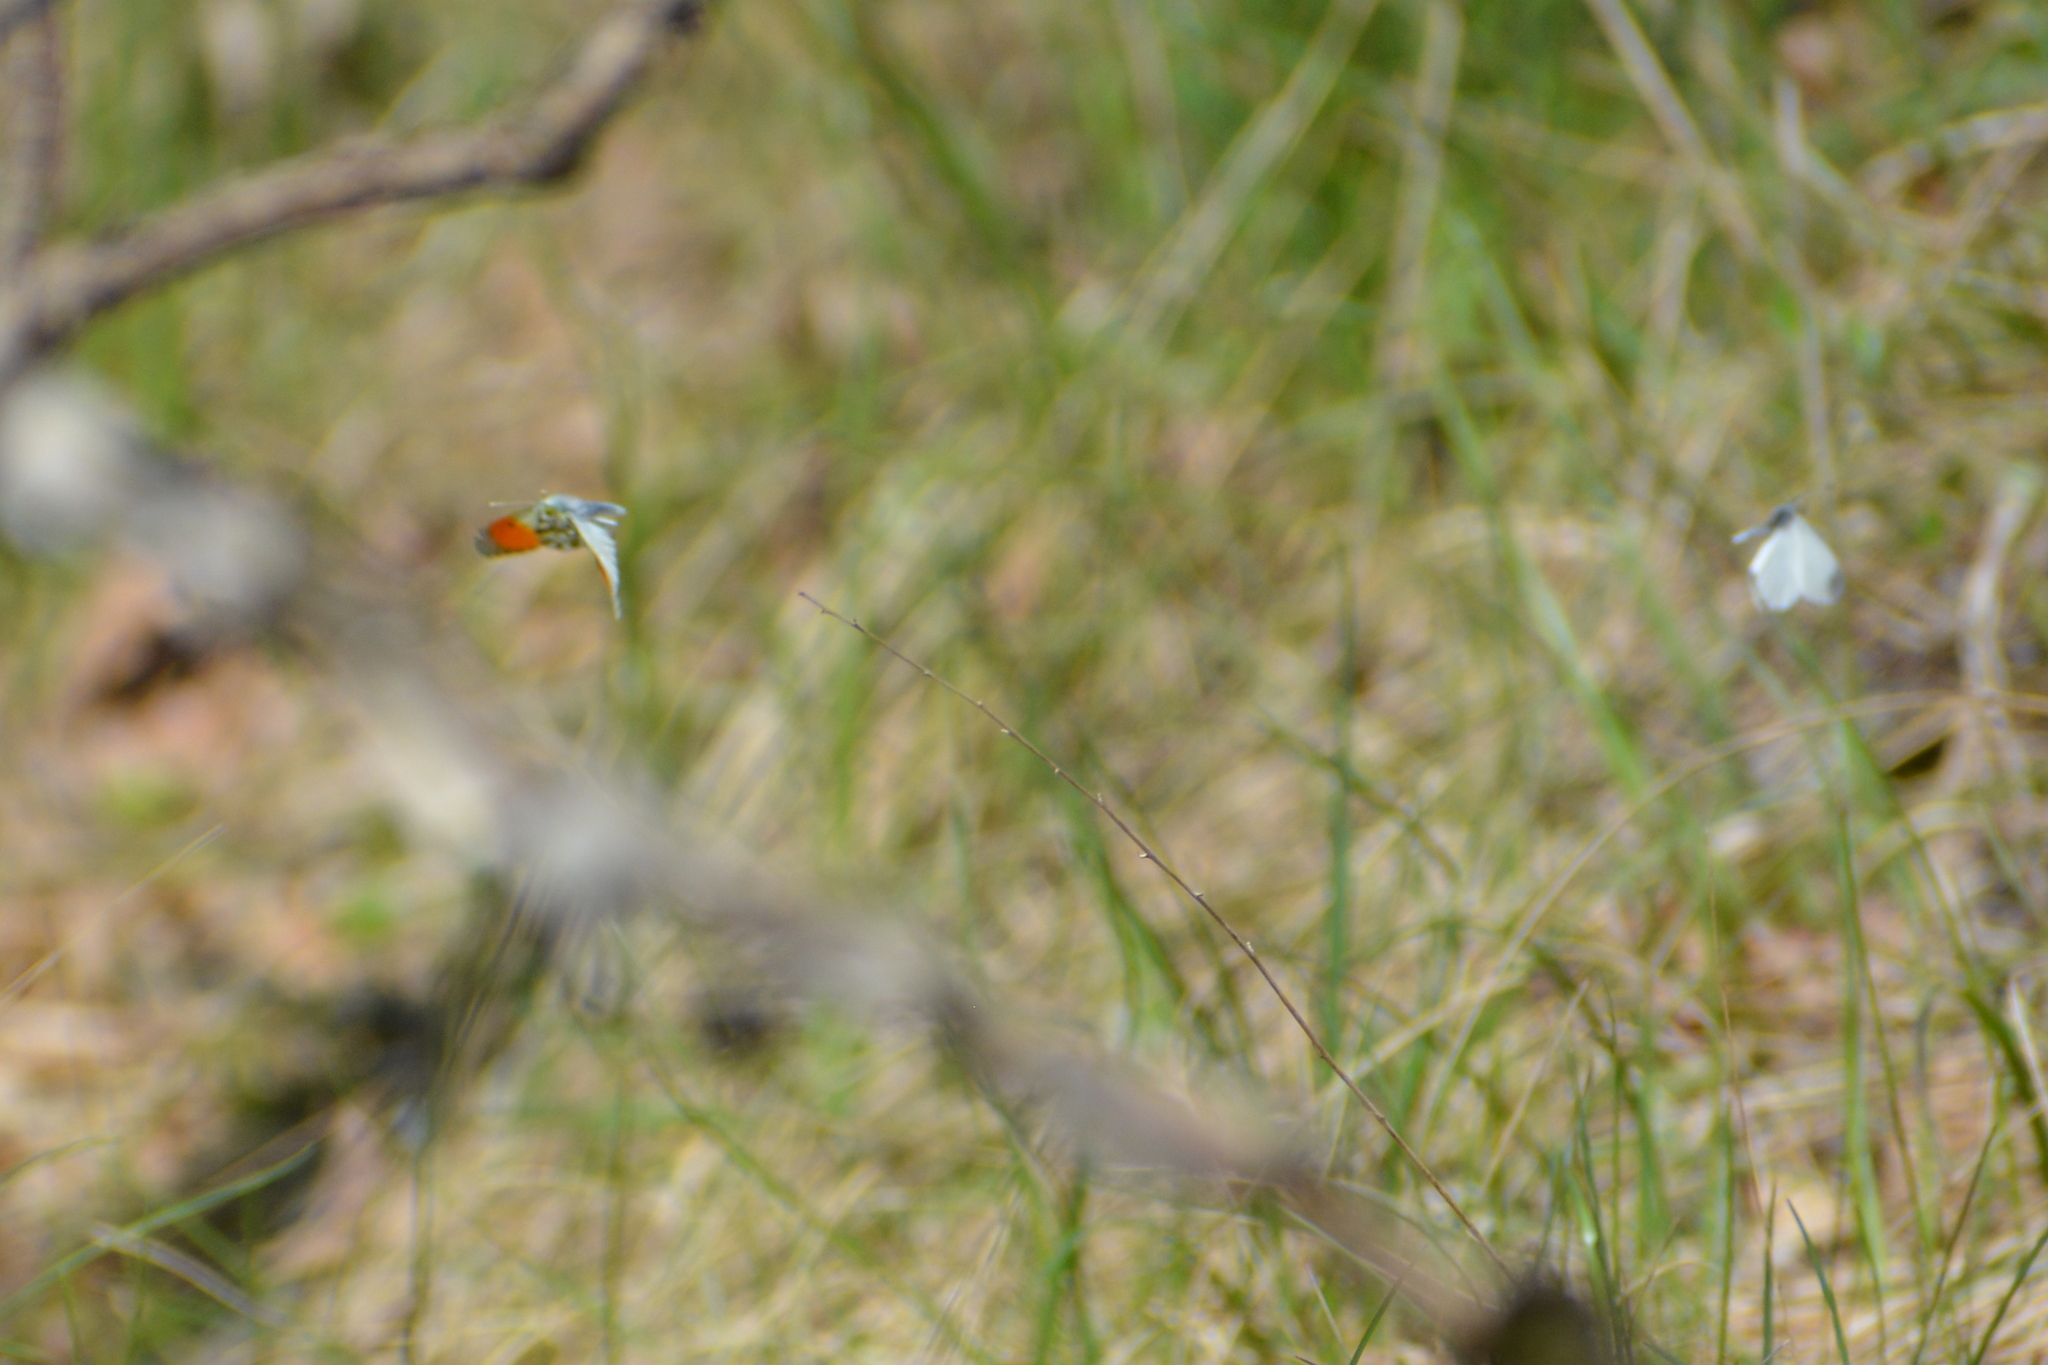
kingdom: Animalia
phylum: Arthropoda
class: Insecta
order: Lepidoptera
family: Pieridae
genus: Anthocharis
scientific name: Anthocharis cardamines
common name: Orange-tip
